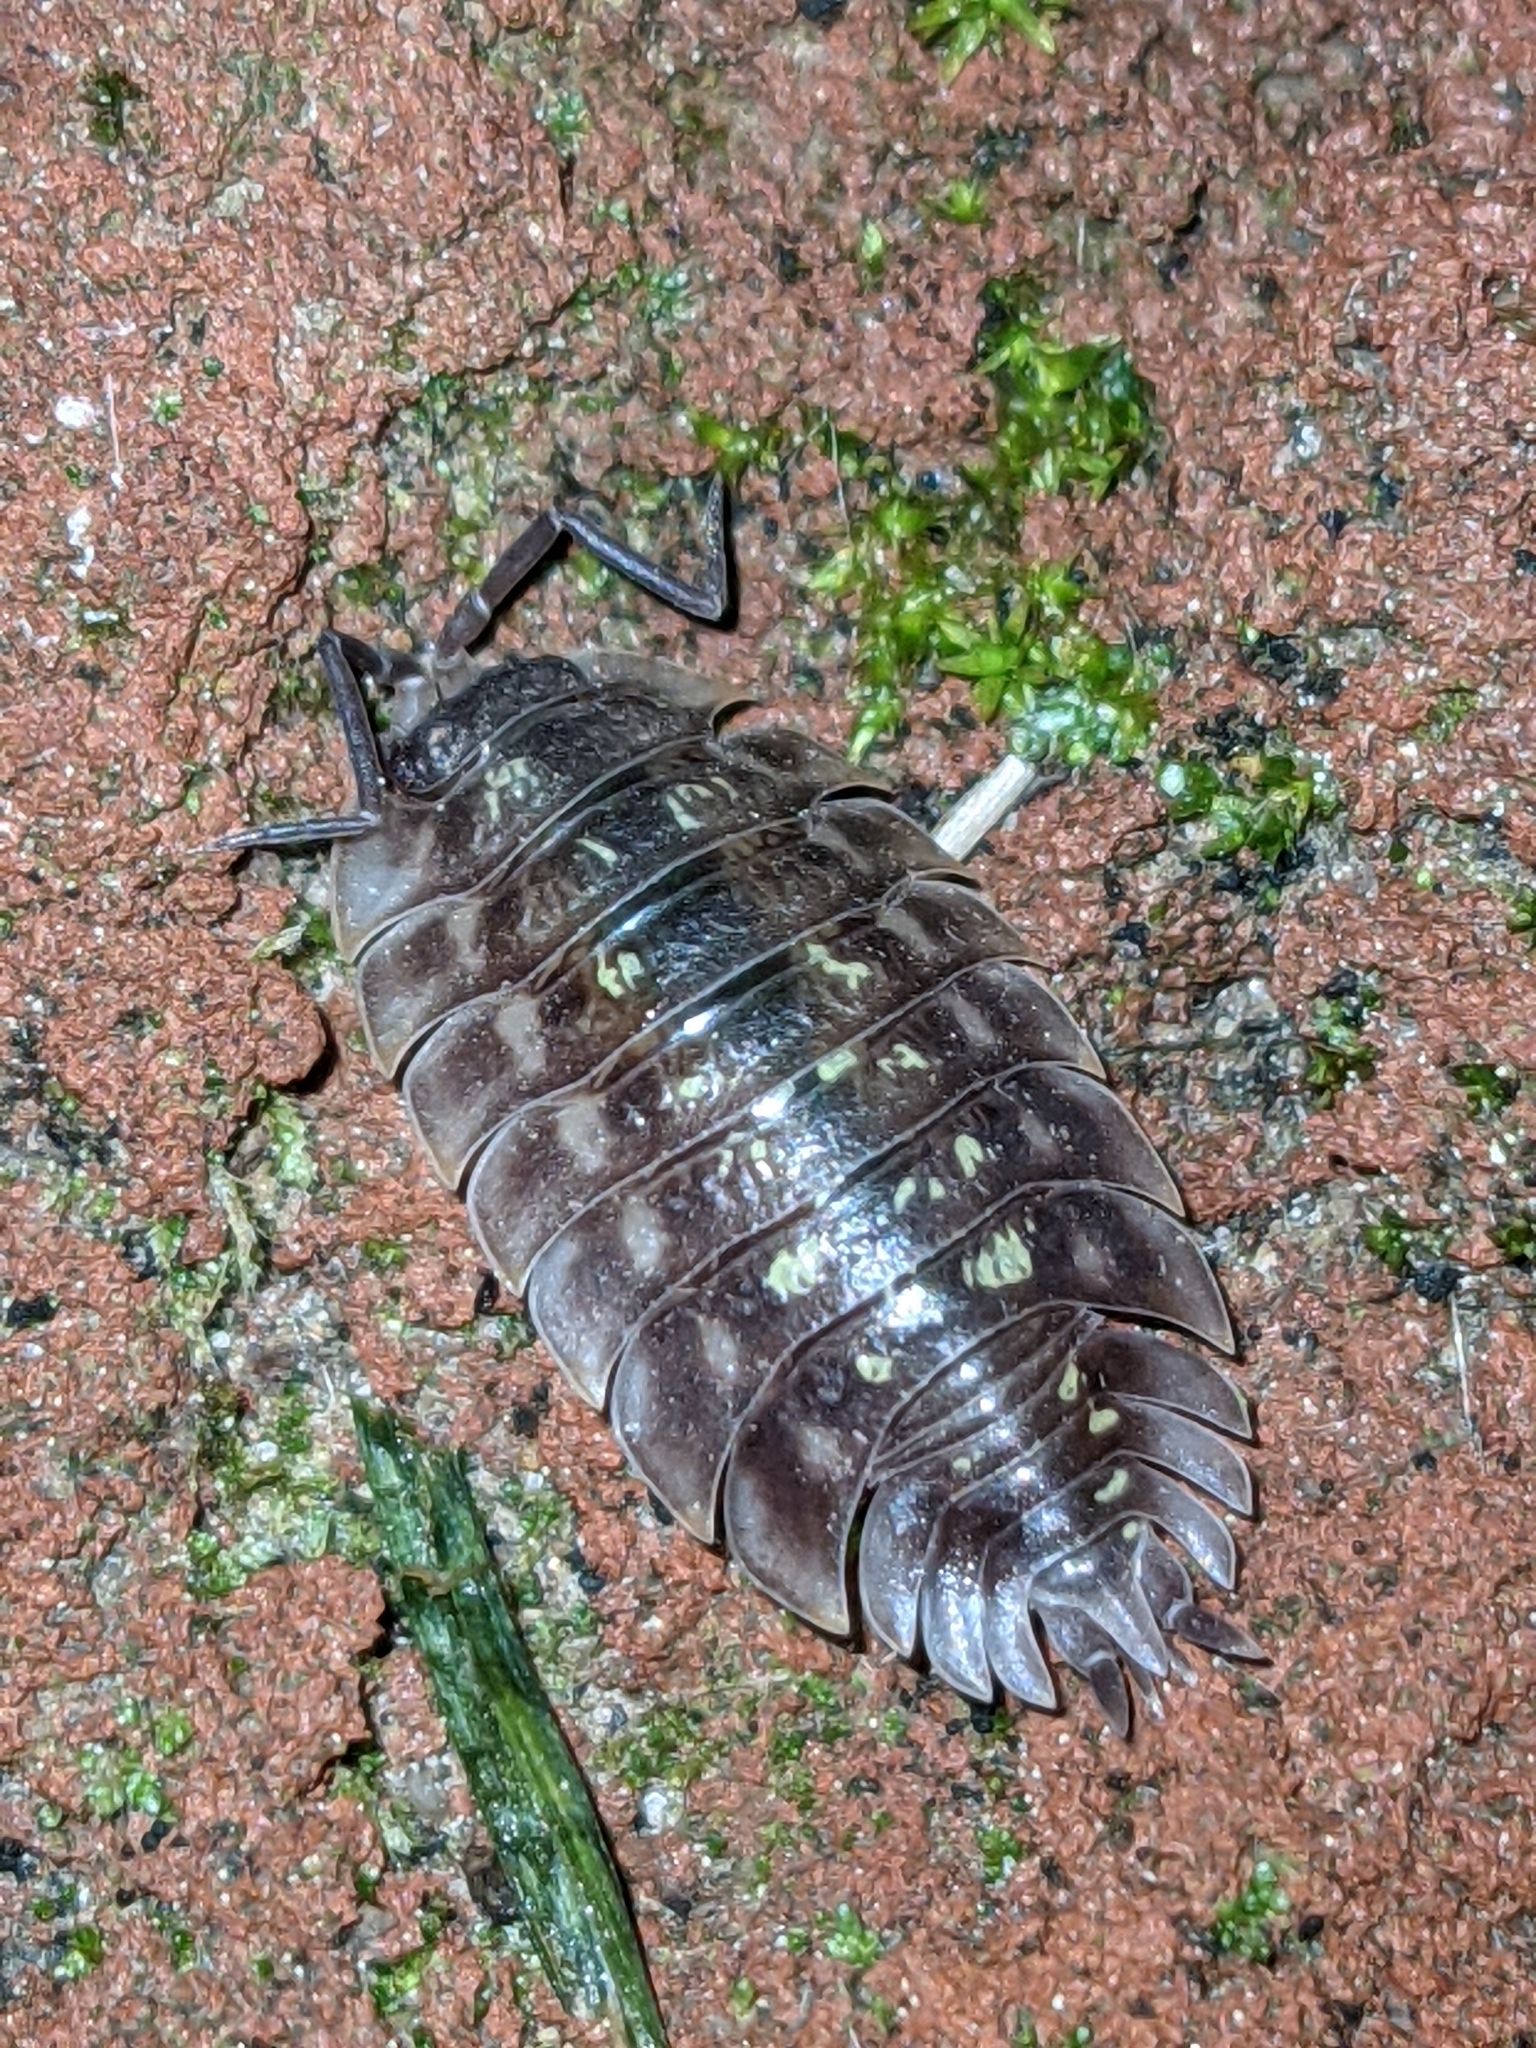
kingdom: Animalia
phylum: Arthropoda
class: Malacostraca
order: Isopoda
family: Oniscidae
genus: Oniscus
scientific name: Oniscus asellus
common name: Common shiny woodlouse
